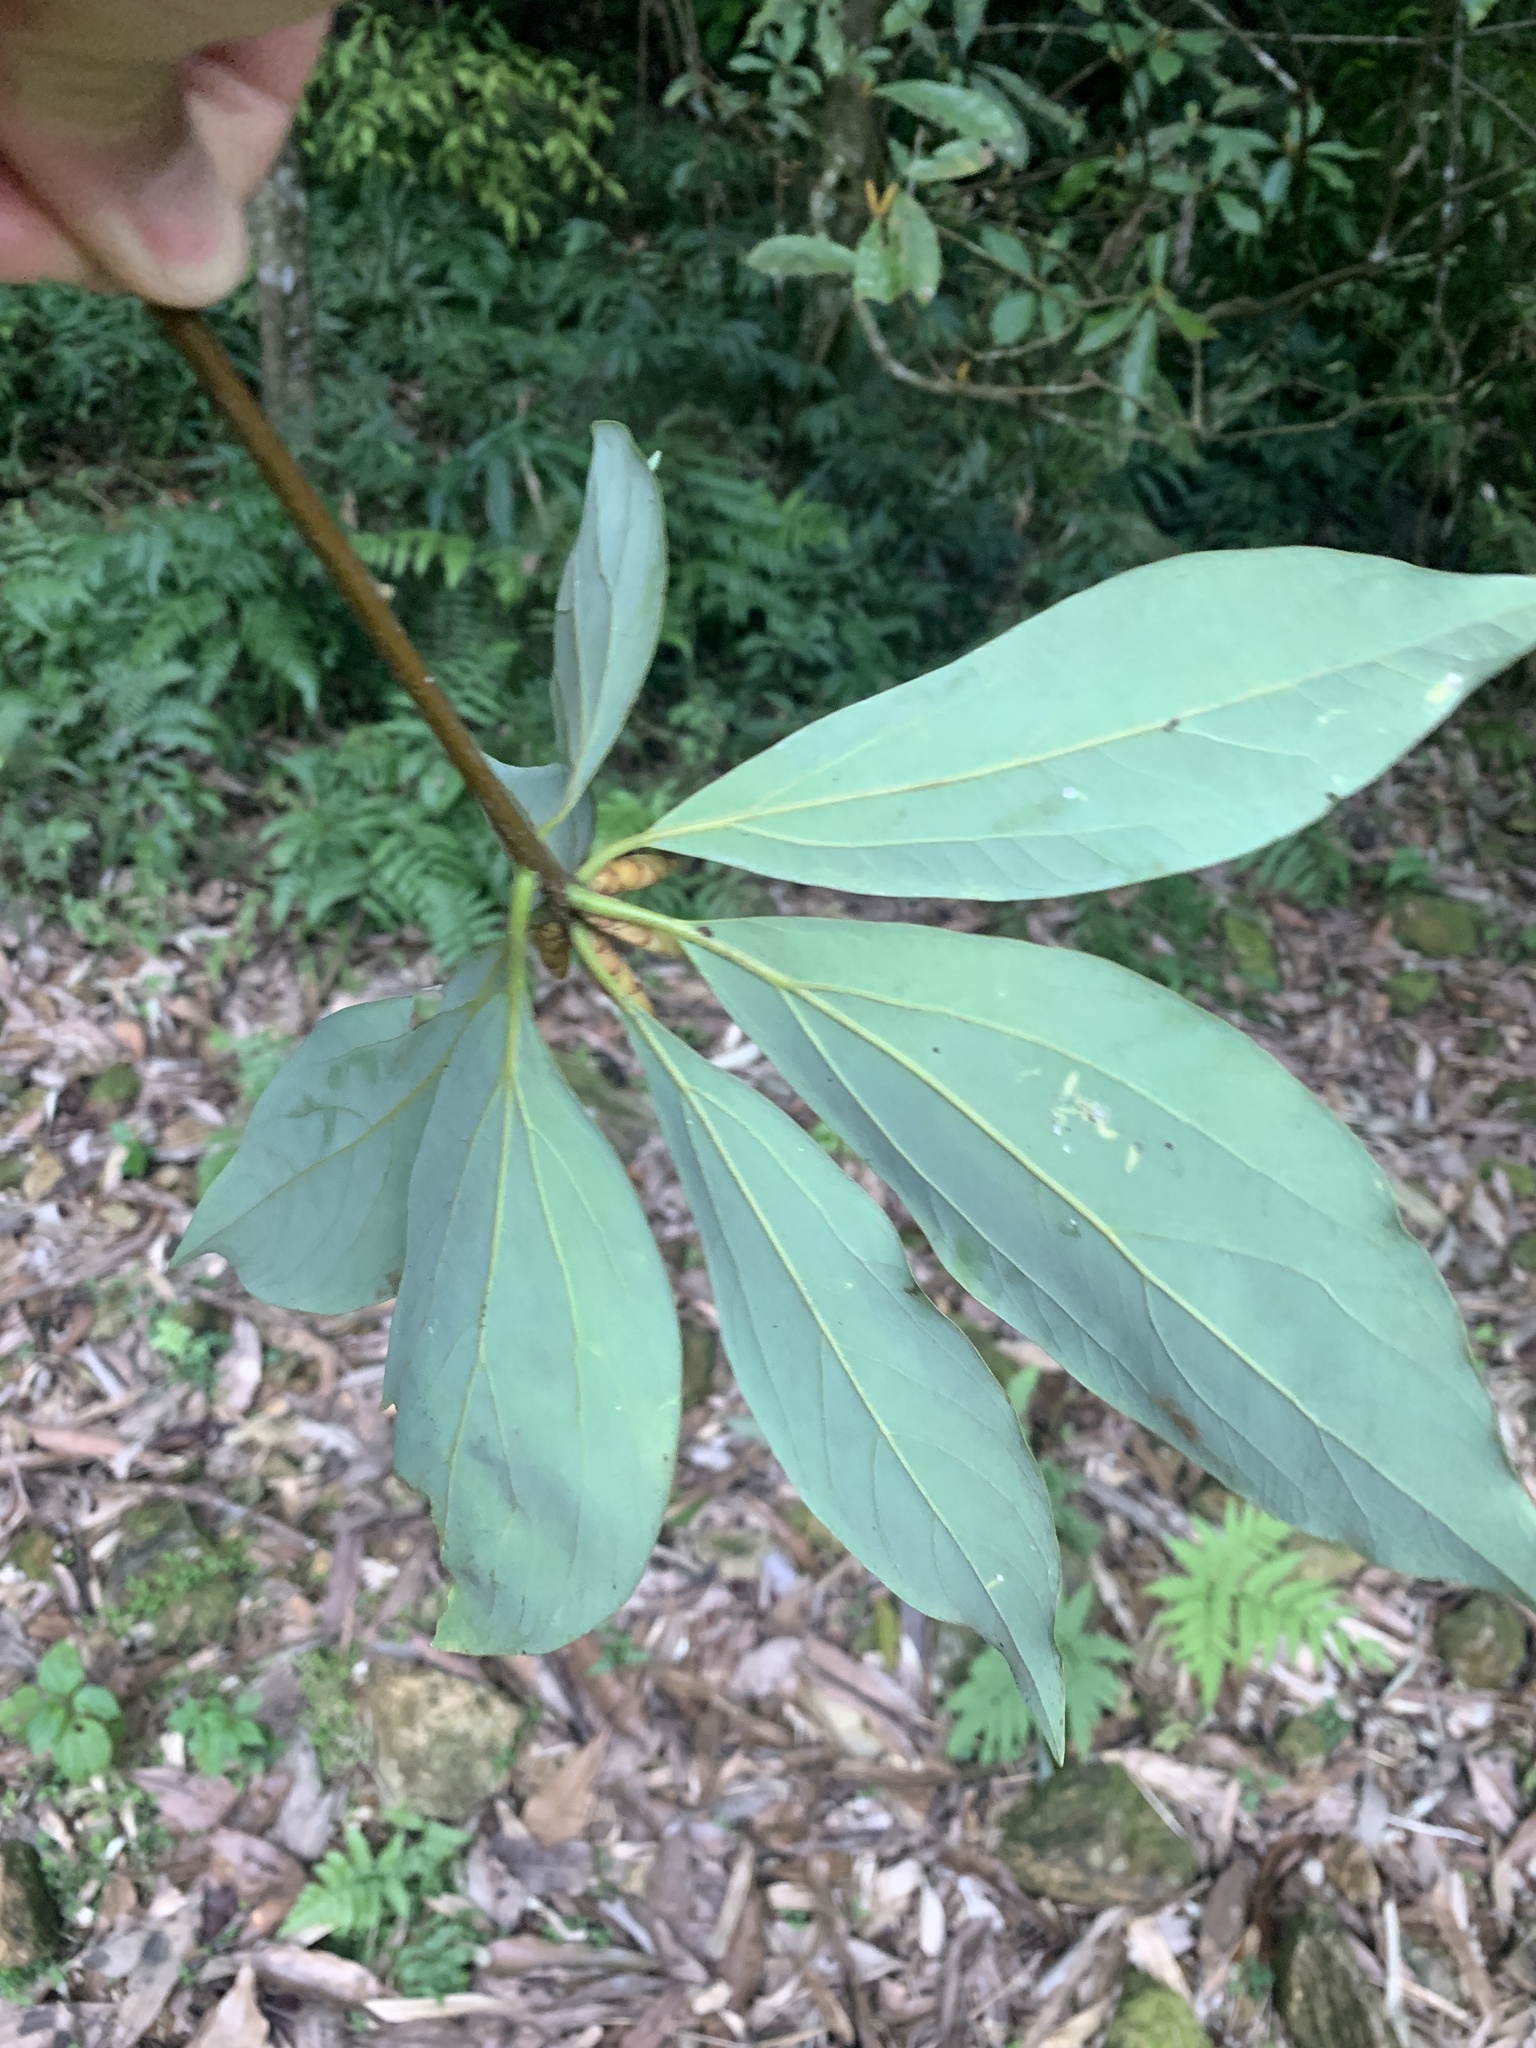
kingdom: Plantae
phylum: Tracheophyta
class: Magnoliopsida
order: Laurales
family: Lauraceae
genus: Neolitsea
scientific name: Neolitsea konishii
